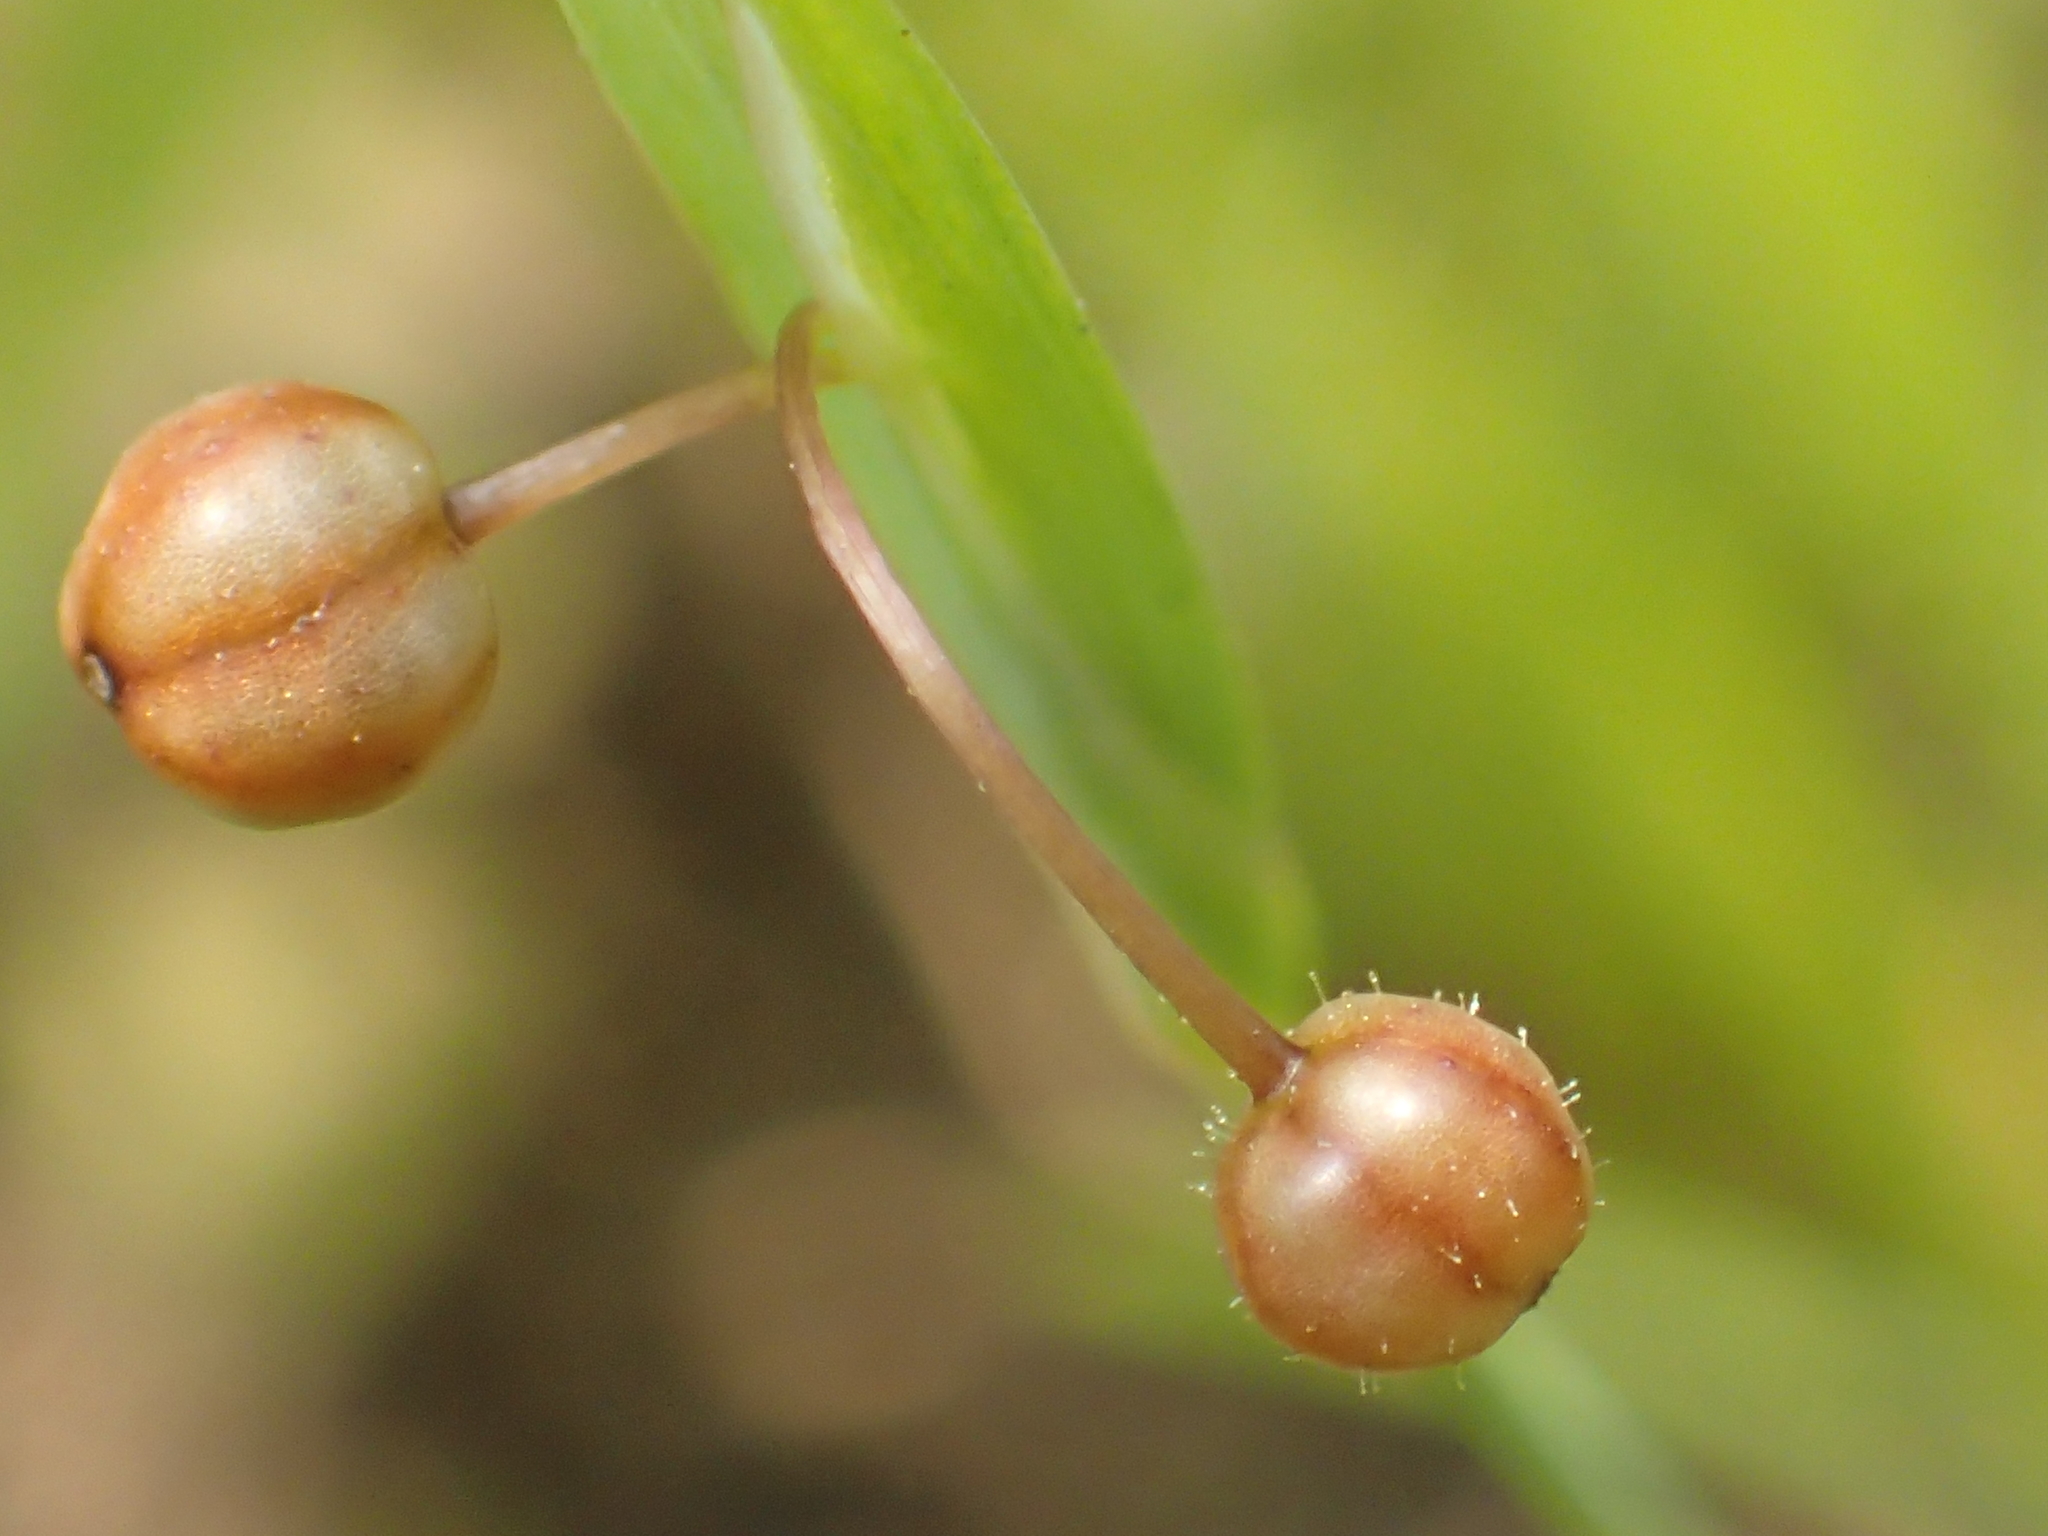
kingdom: Plantae
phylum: Tracheophyta
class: Liliopsida
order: Asparagales
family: Iridaceae
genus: Sisyrinchium
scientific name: Sisyrinchium micranthum
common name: Bermuda pigroot
